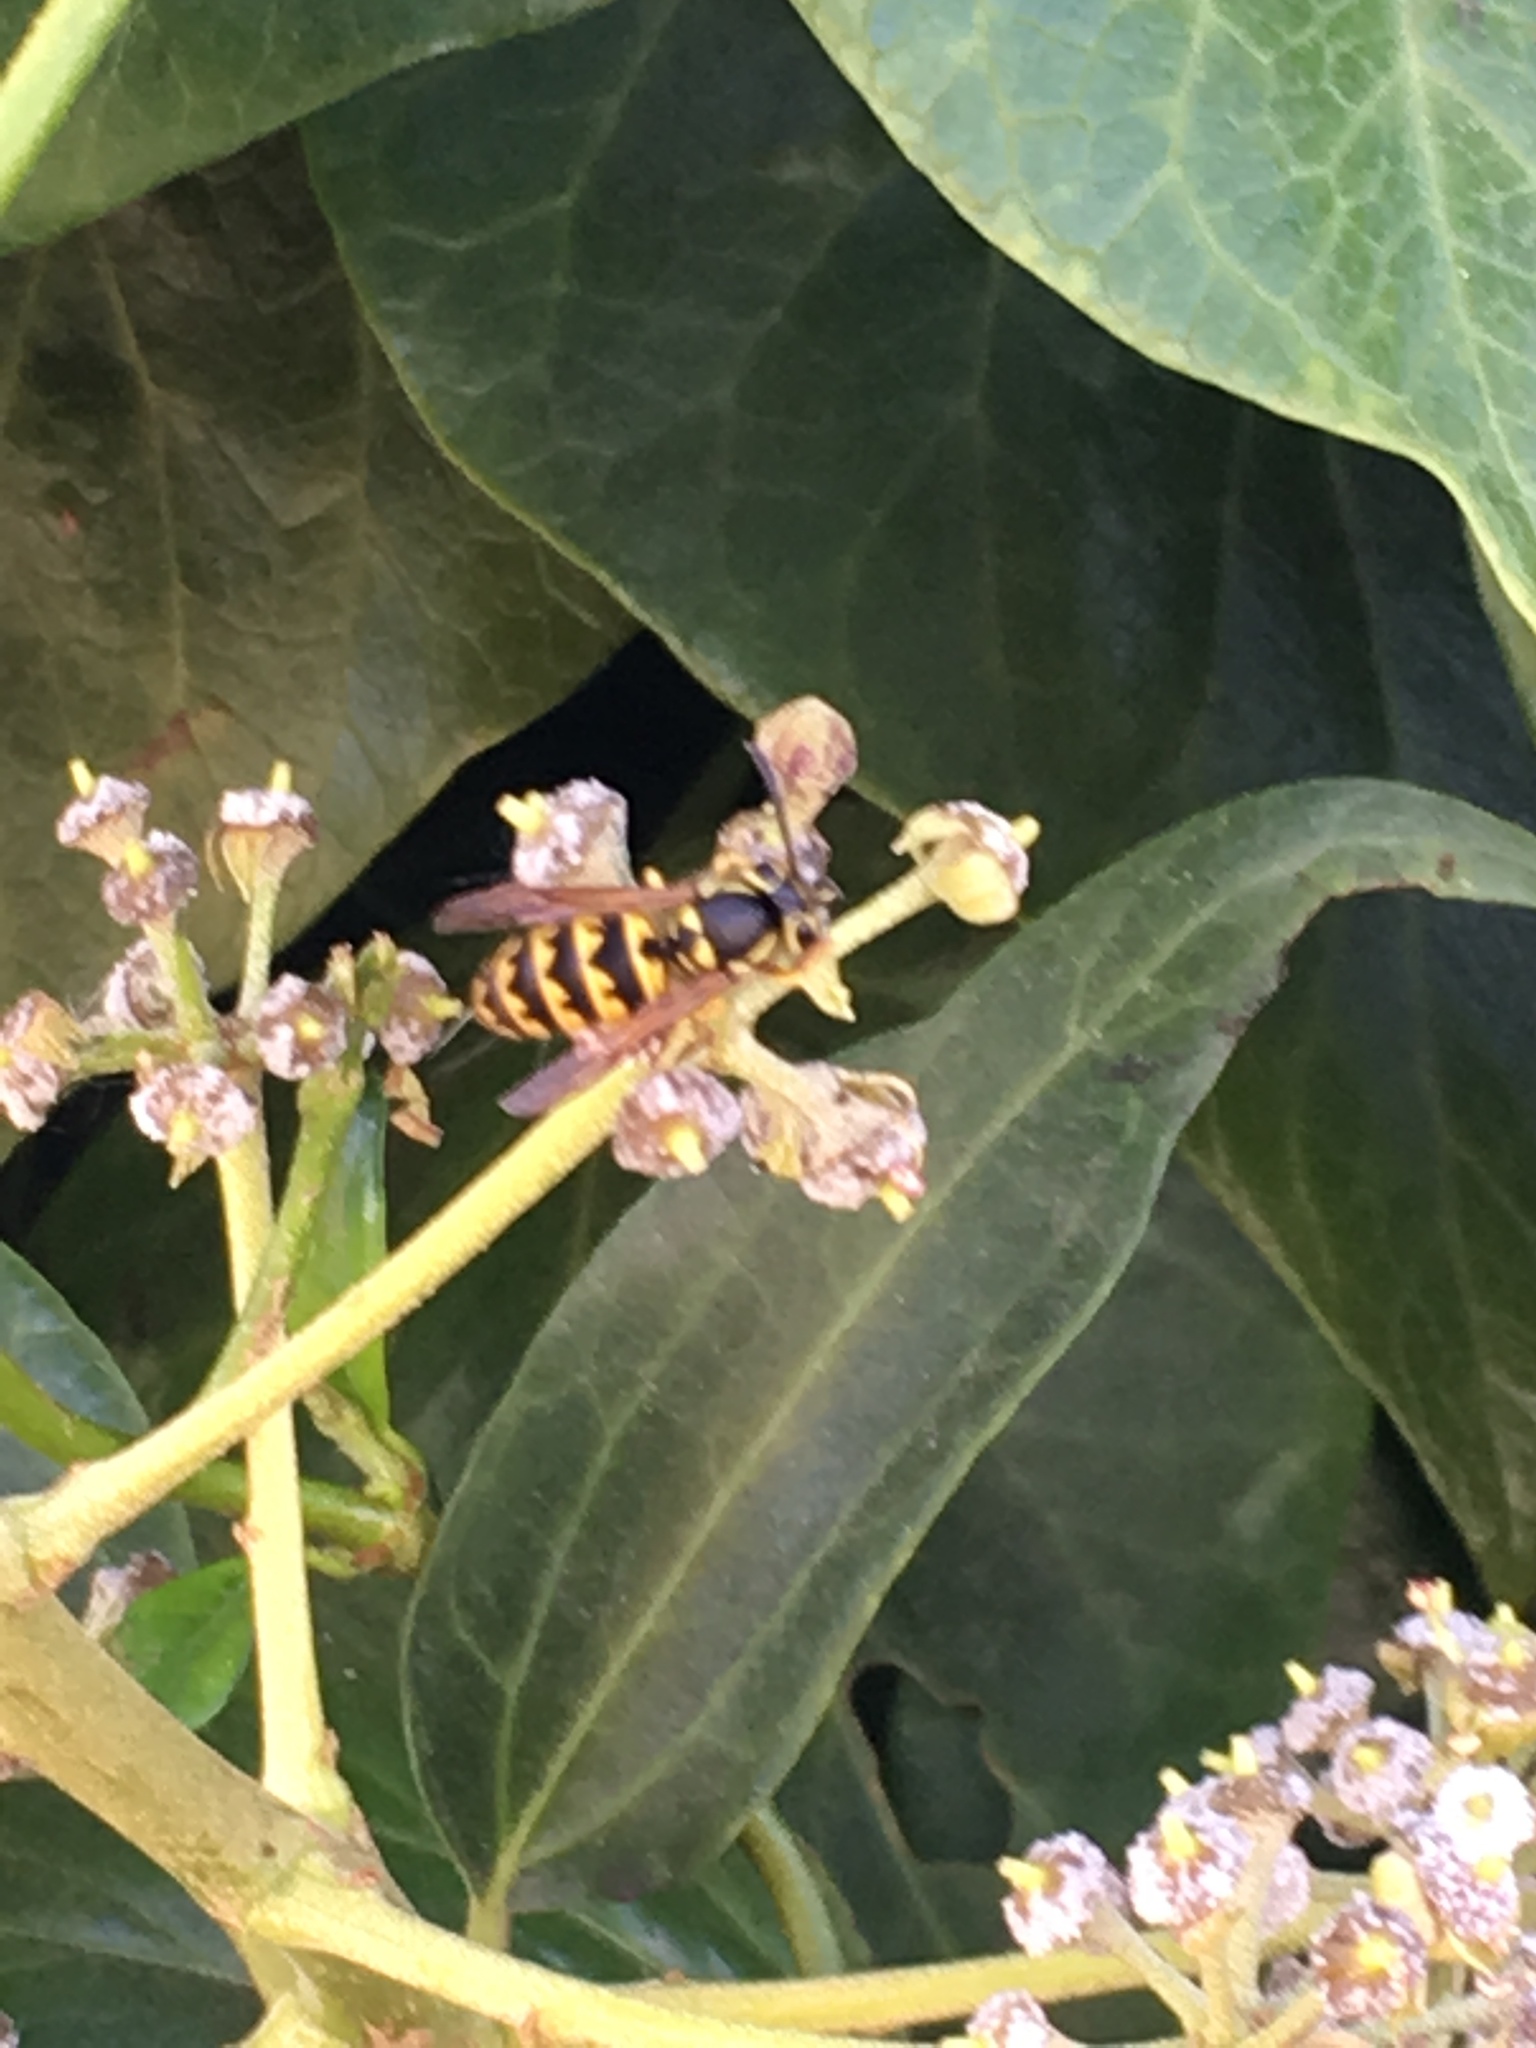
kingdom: Animalia
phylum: Arthropoda
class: Insecta
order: Hymenoptera
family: Vespidae
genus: Vespula
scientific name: Vespula pensylvanica
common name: Western yellowjacket
